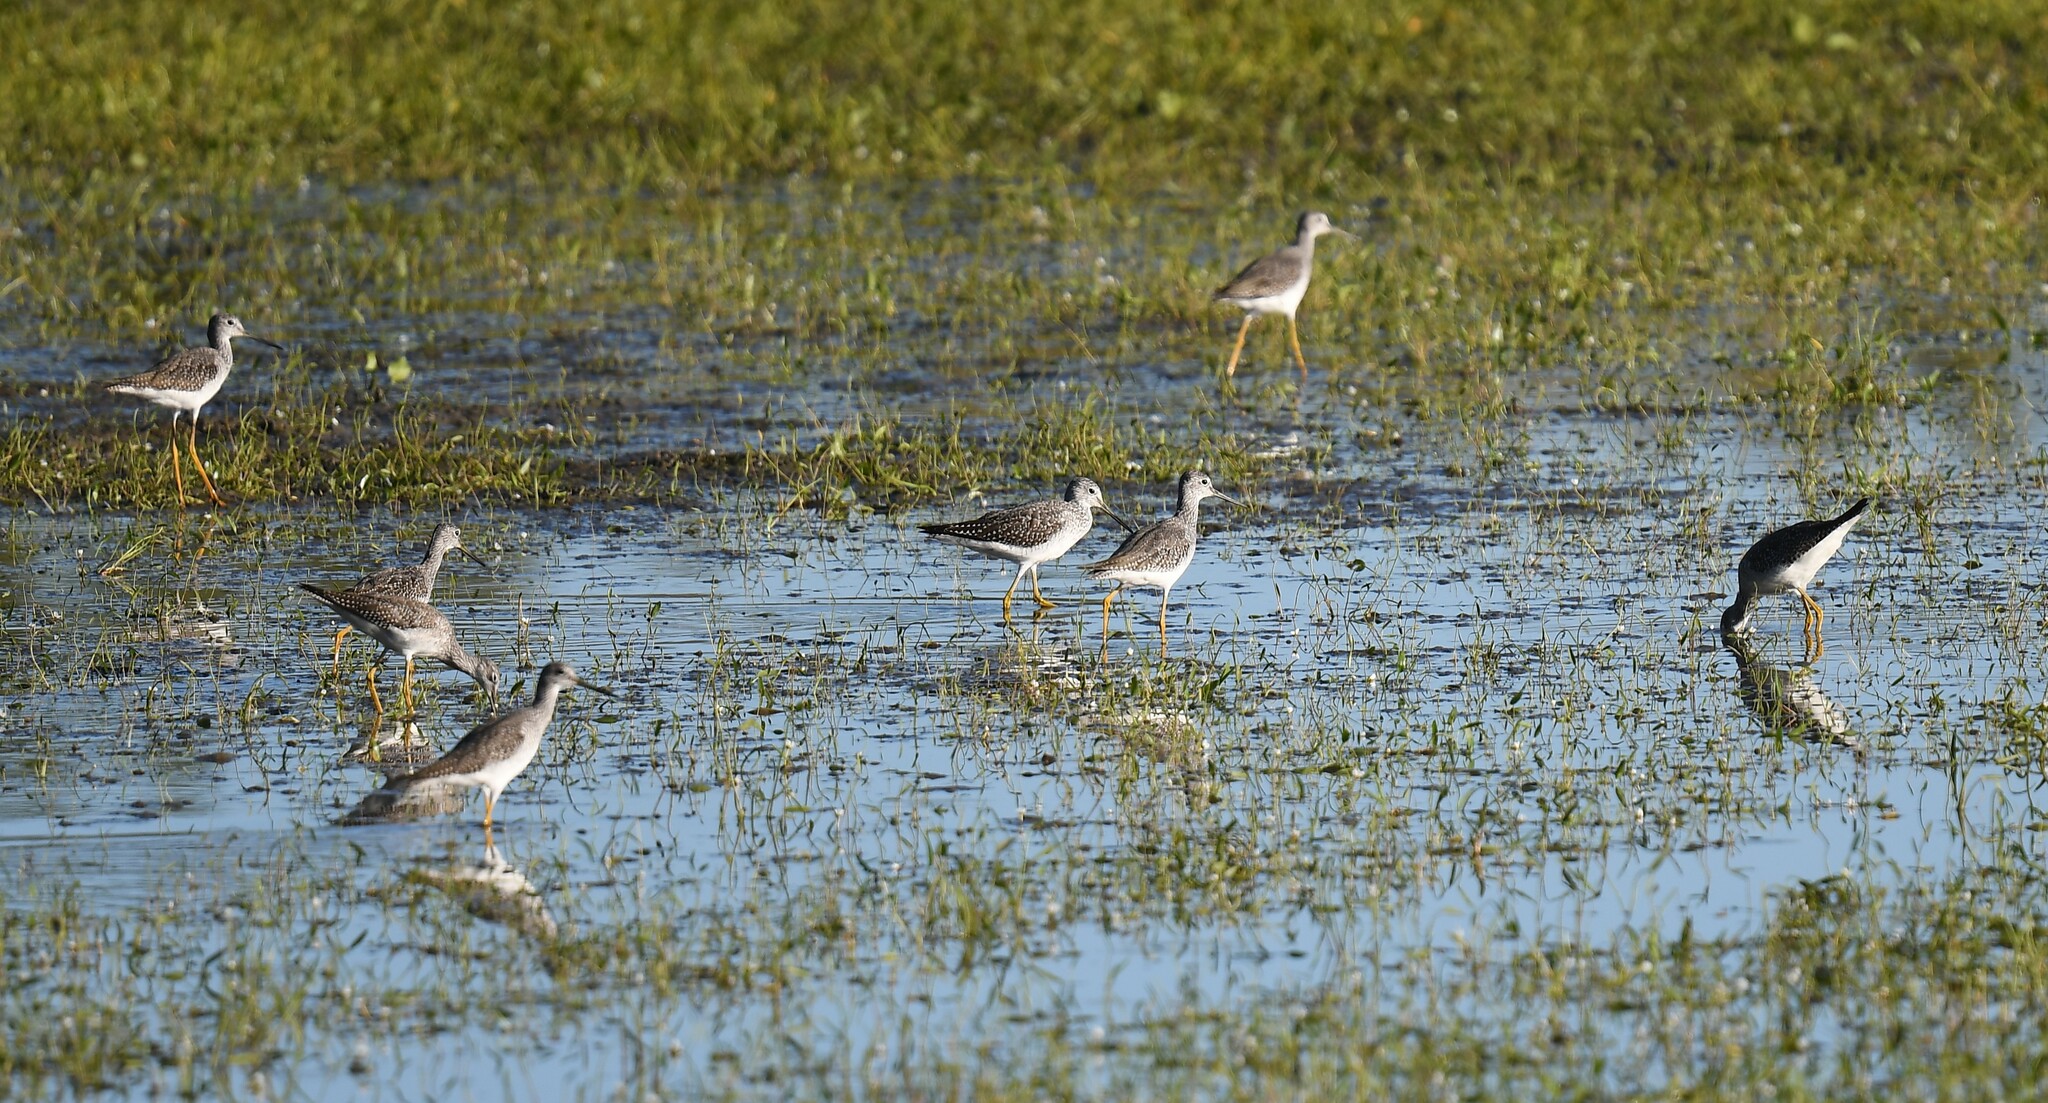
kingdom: Animalia
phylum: Chordata
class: Aves
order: Charadriiformes
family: Scolopacidae
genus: Tringa
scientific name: Tringa melanoleuca
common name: Greater yellowlegs
